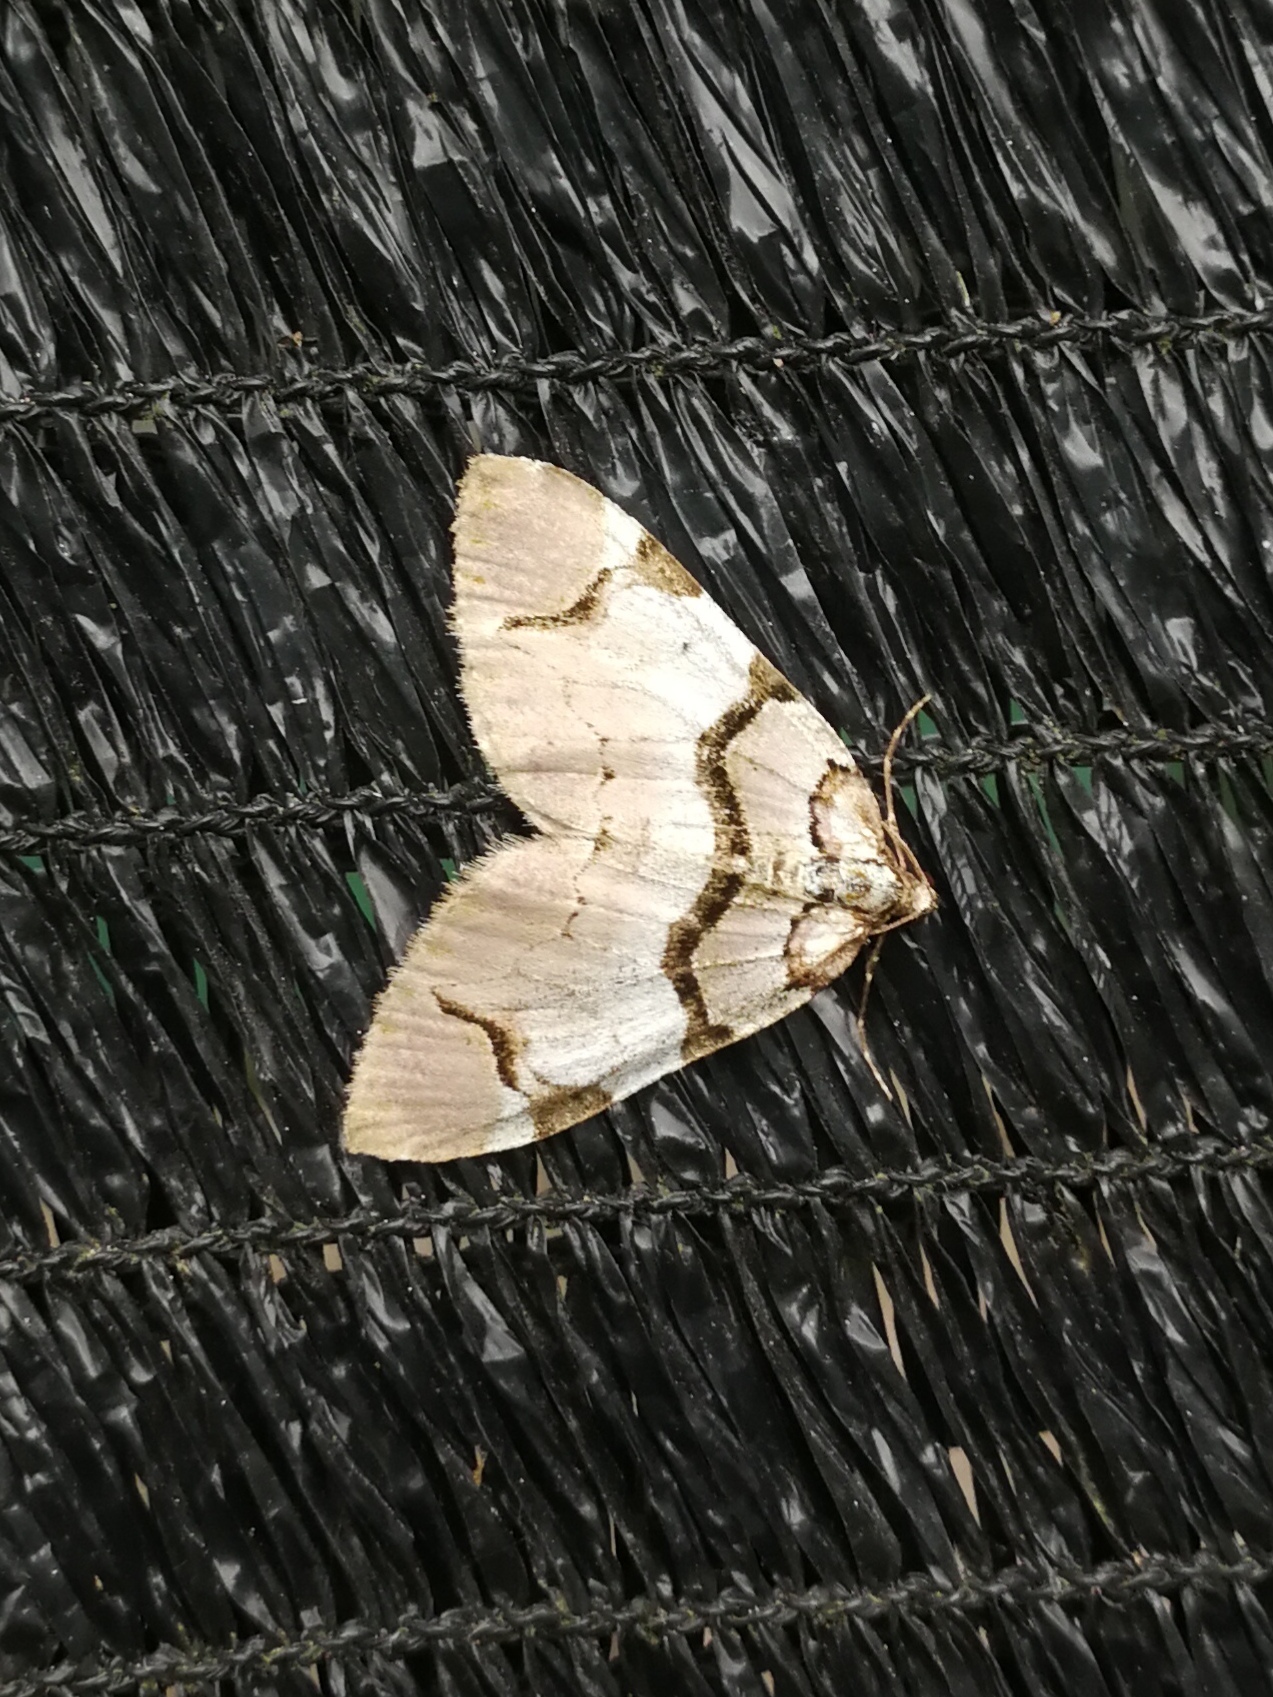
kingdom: Animalia
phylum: Arthropoda
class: Insecta
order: Lepidoptera
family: Geometridae
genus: Anticlea
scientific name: Anticlea derivata
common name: Streamer
